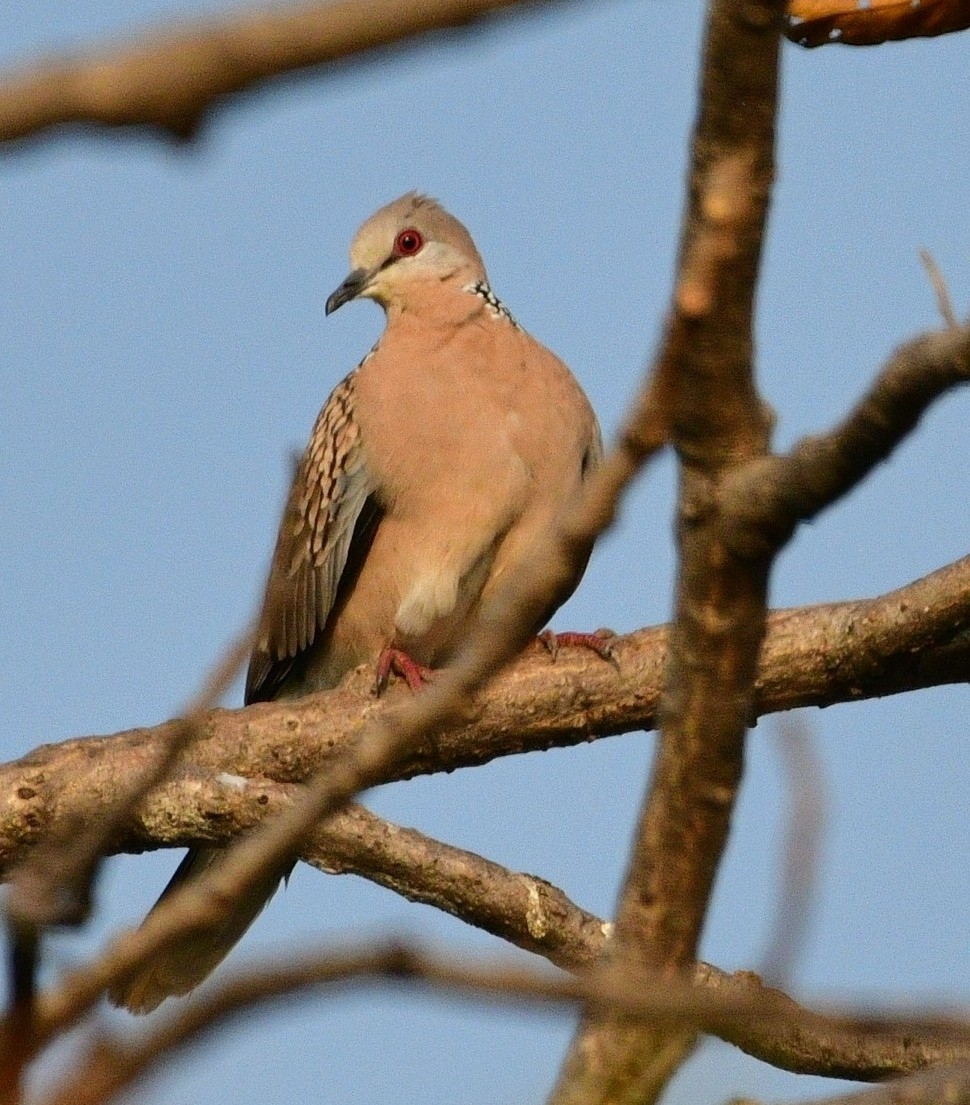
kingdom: Animalia
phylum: Chordata
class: Aves
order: Columbiformes
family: Columbidae
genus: Spilopelia
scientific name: Spilopelia chinensis
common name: Spotted dove
